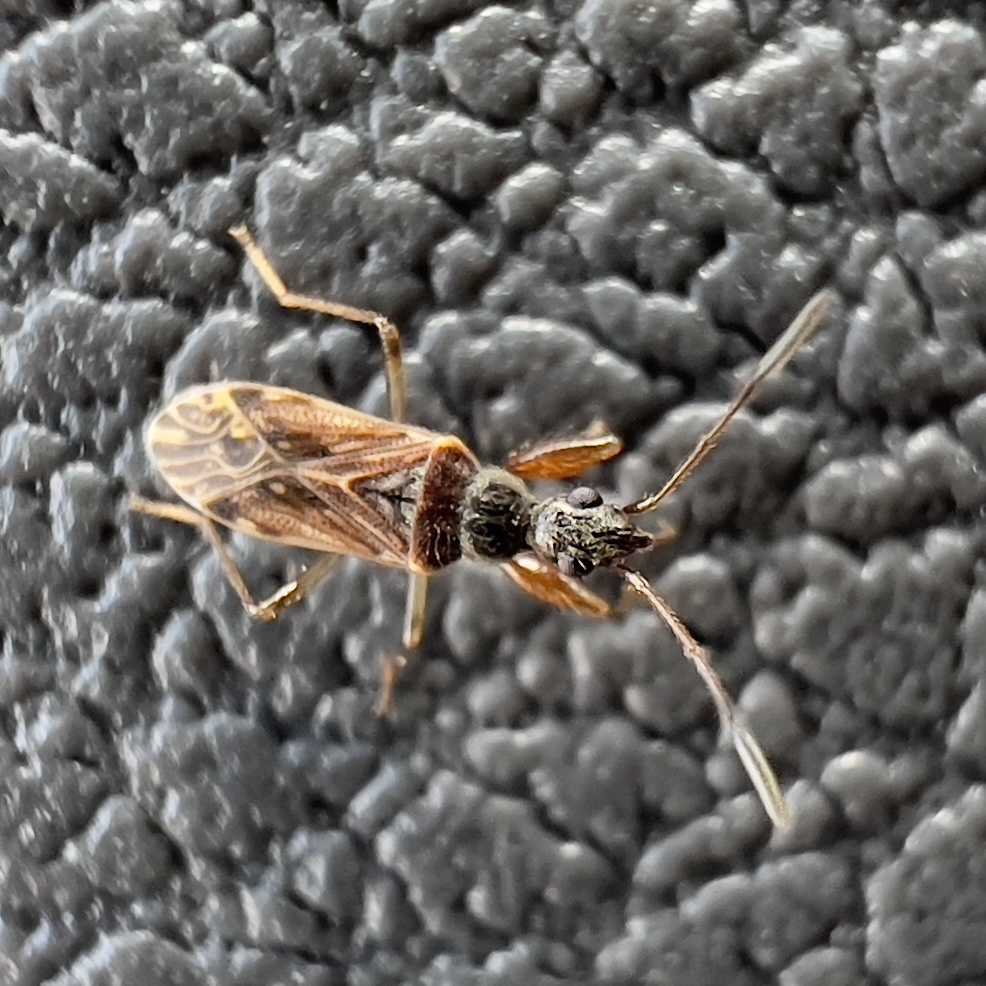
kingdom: Animalia
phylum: Arthropoda
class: Insecta
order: Hemiptera
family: Rhyparochromidae
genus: Heraeus
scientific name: Heraeus plebejus
